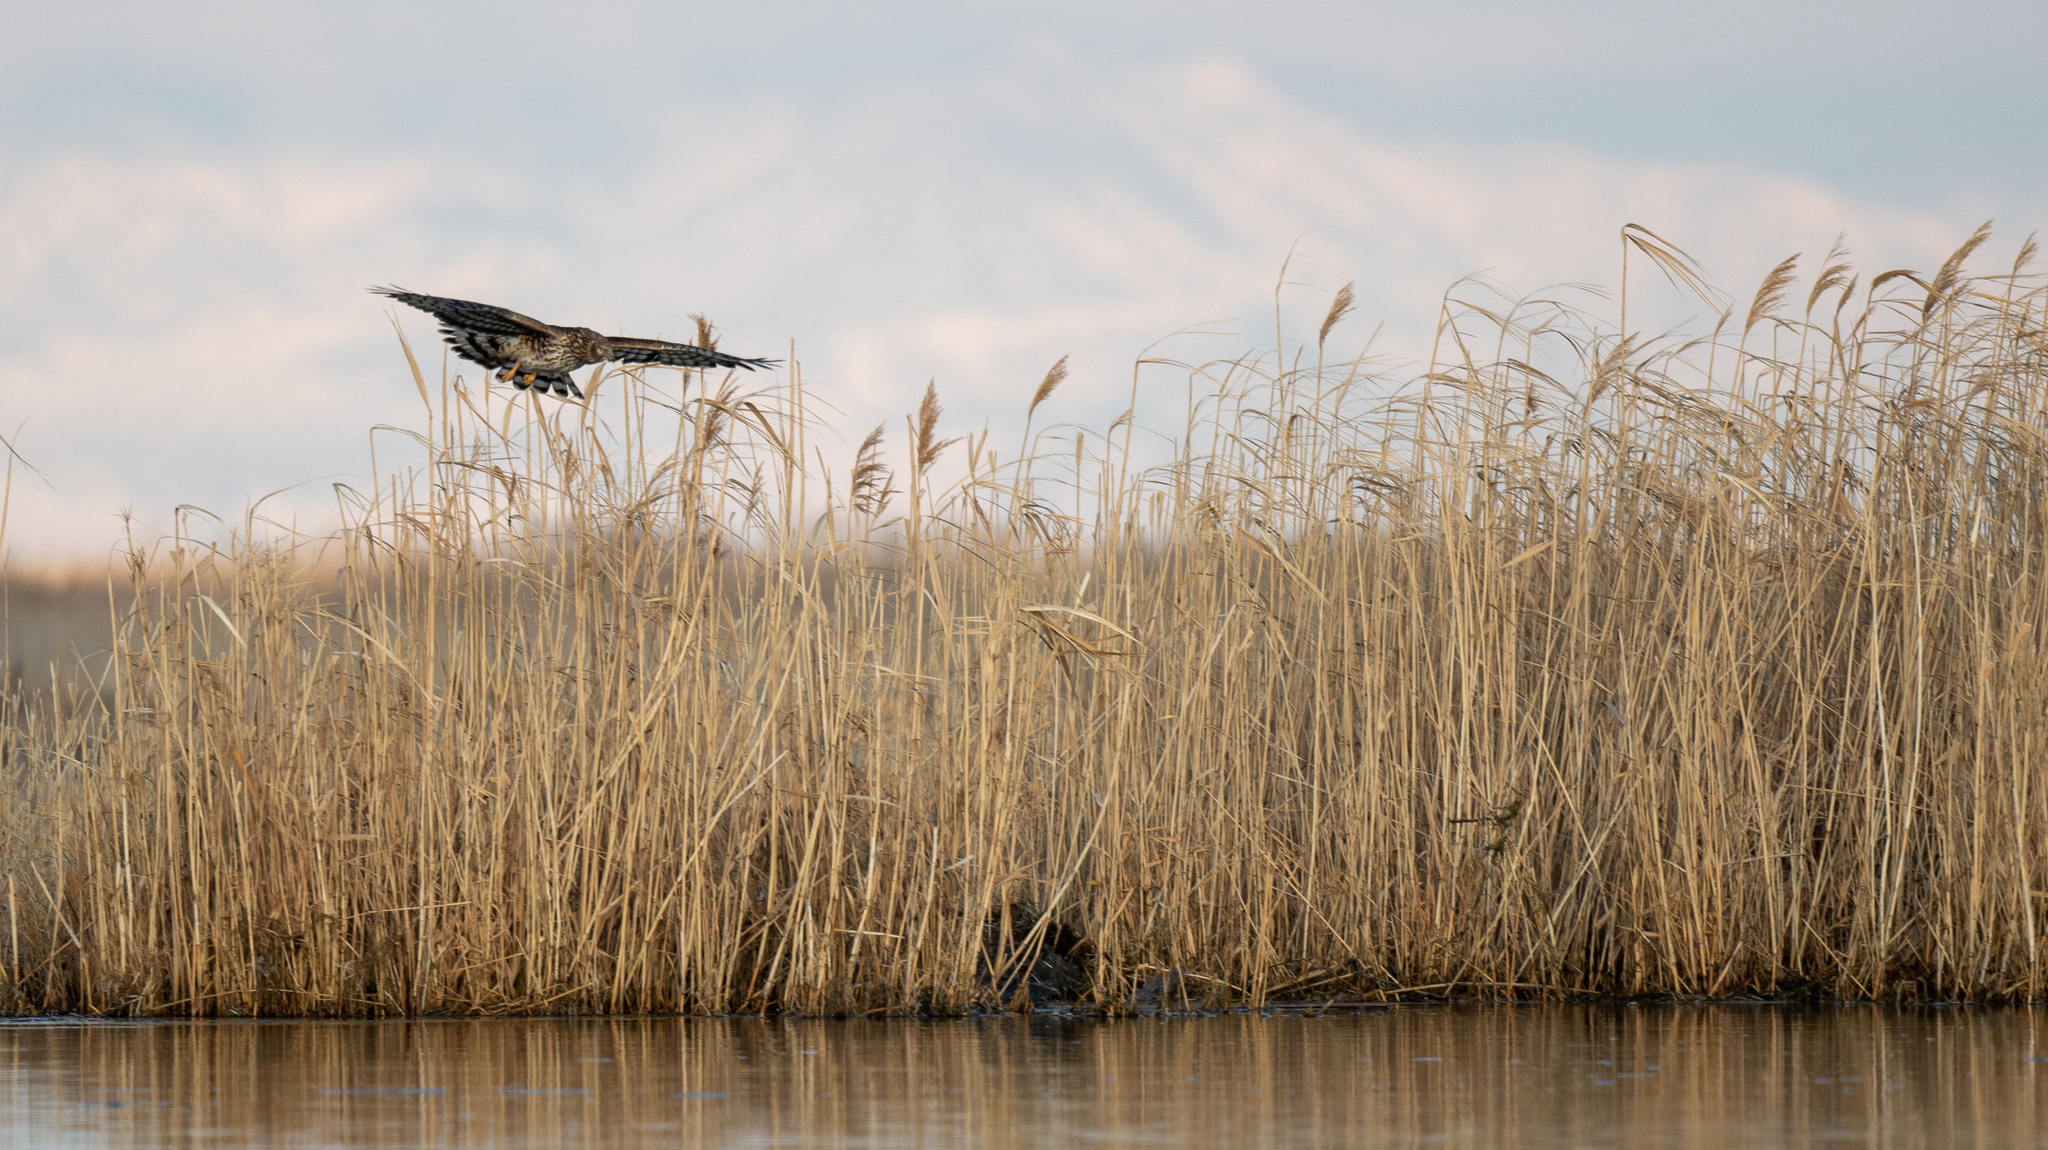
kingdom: Animalia
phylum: Chordata
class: Aves
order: Accipitriformes
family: Accipitridae
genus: Circus
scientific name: Circus cyaneus
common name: Hen harrier
